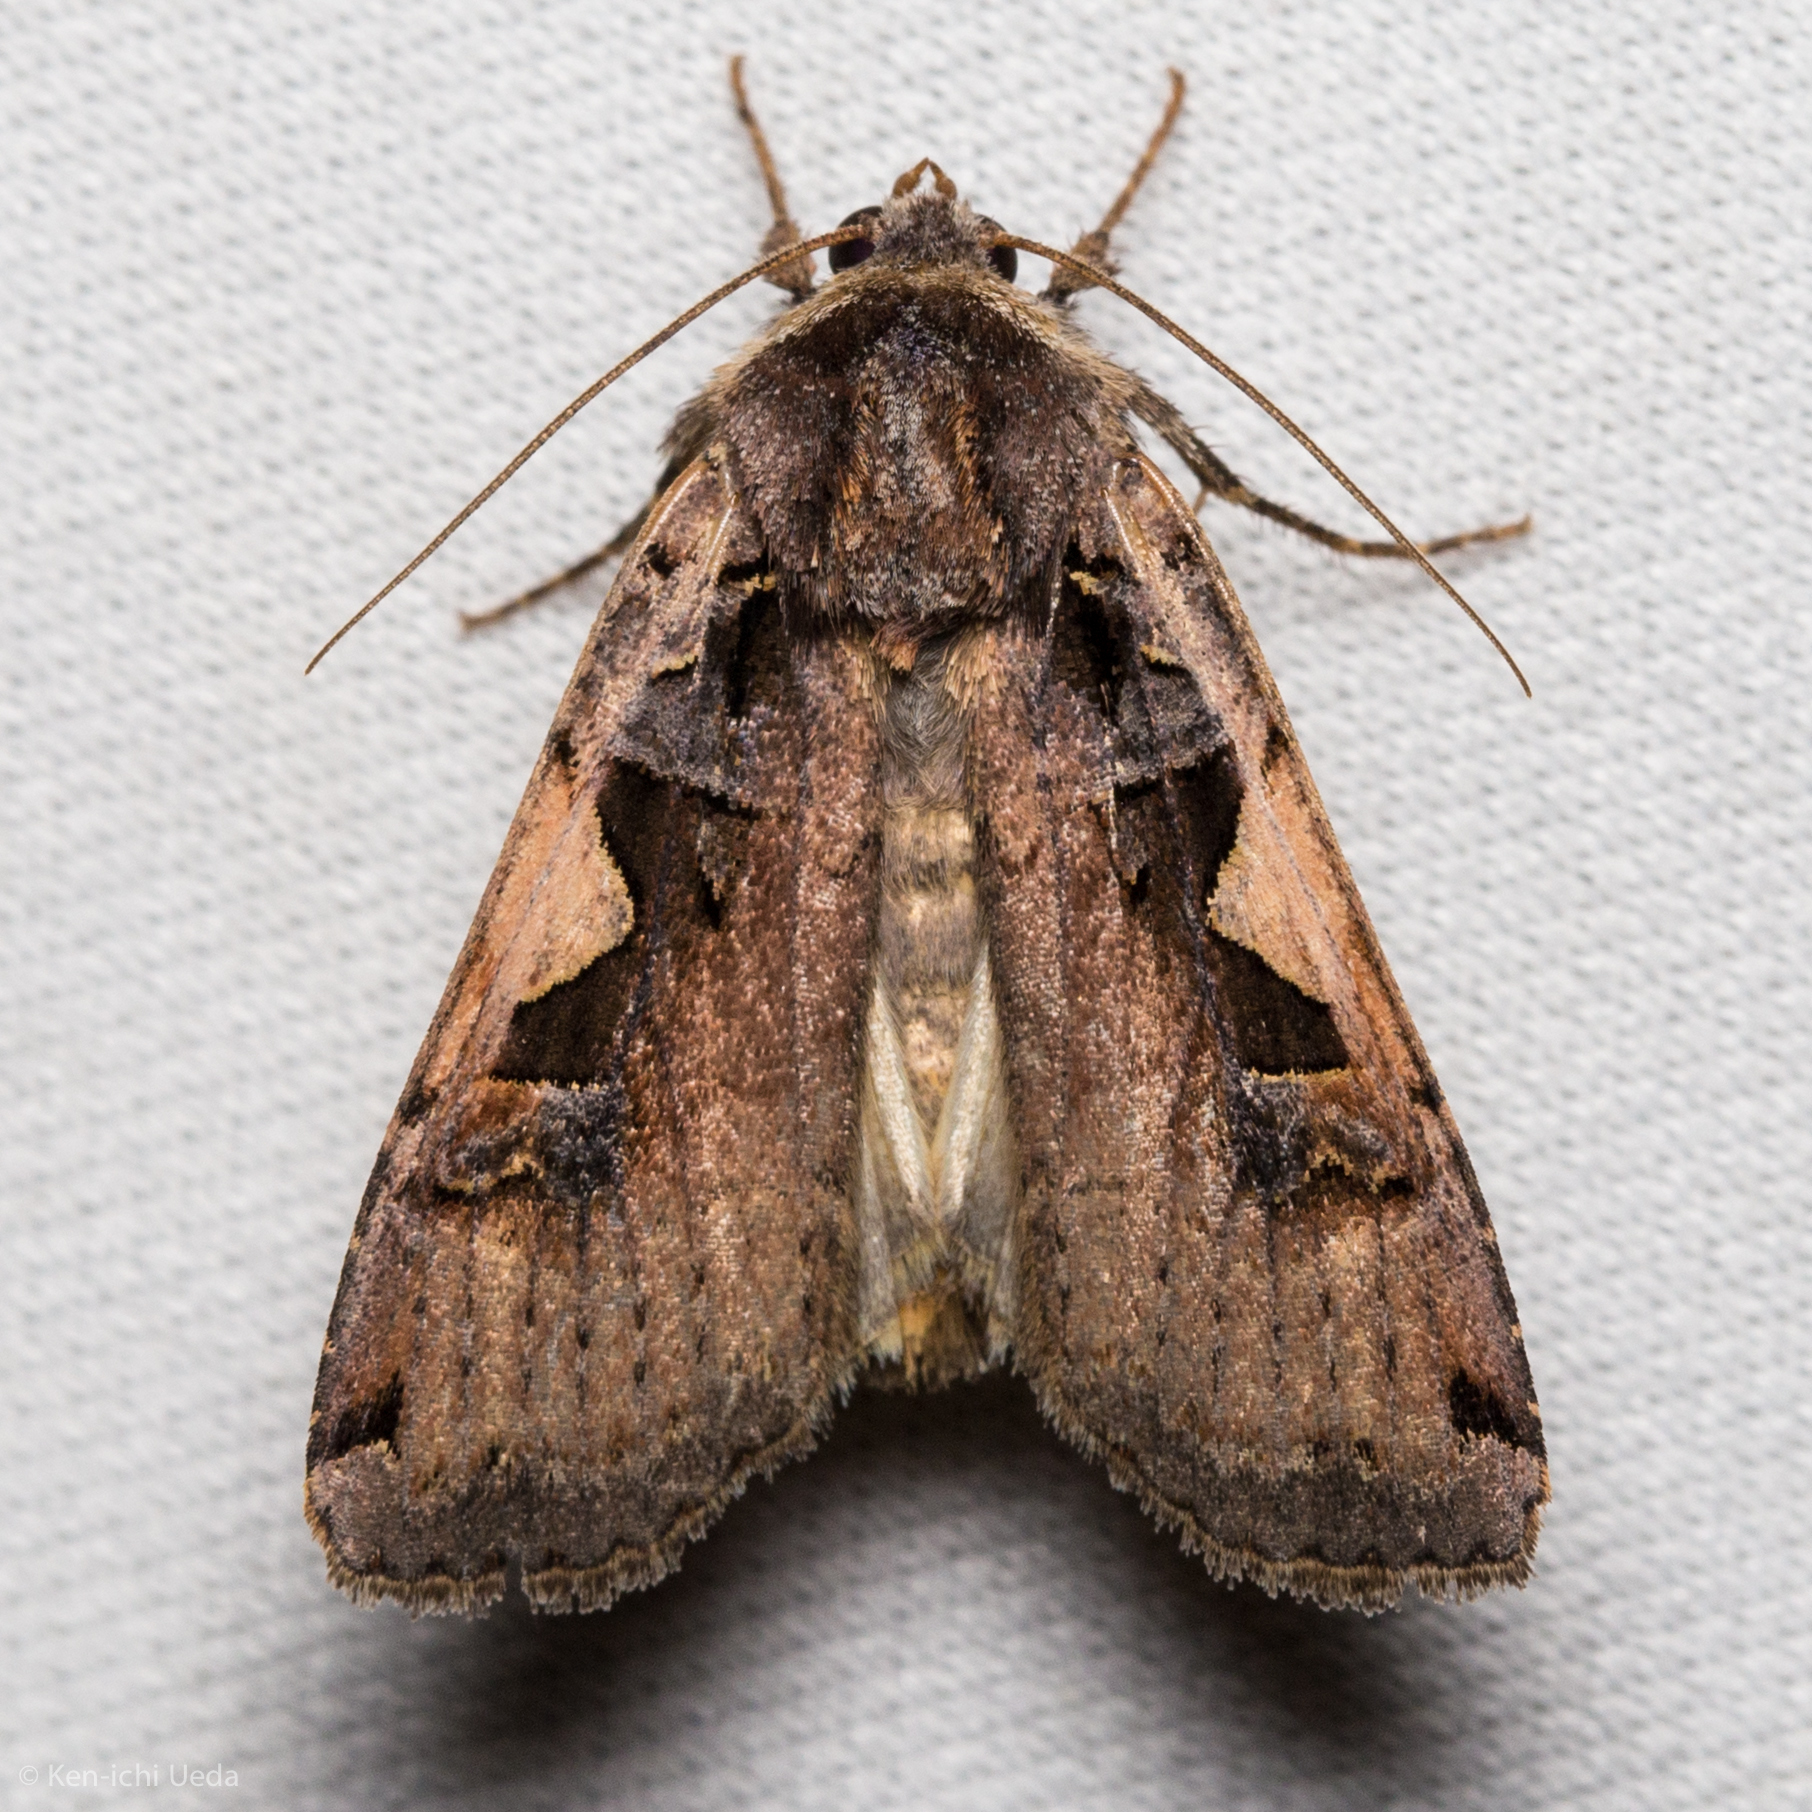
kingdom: Animalia
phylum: Arthropoda
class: Insecta
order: Lepidoptera
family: Noctuidae
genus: Xestia
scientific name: Xestia c-nigrum
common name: Setaceous hebrew character
